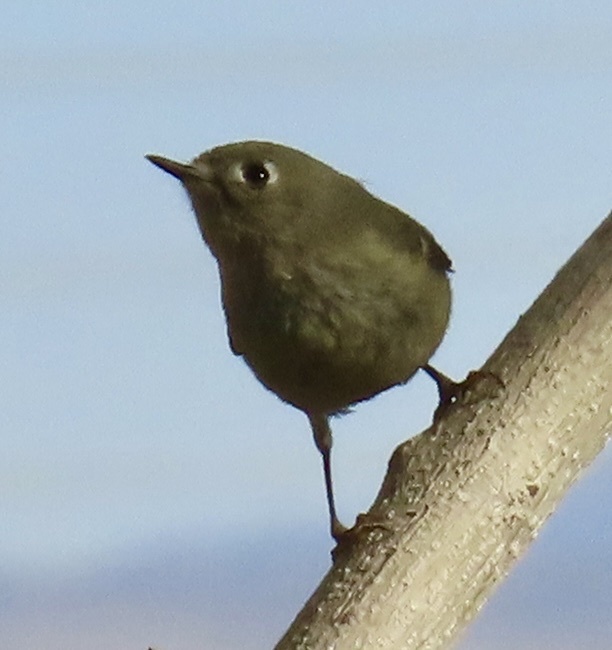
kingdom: Animalia
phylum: Chordata
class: Aves
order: Passeriformes
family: Regulidae
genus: Regulus
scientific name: Regulus calendula
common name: Ruby-crowned kinglet
